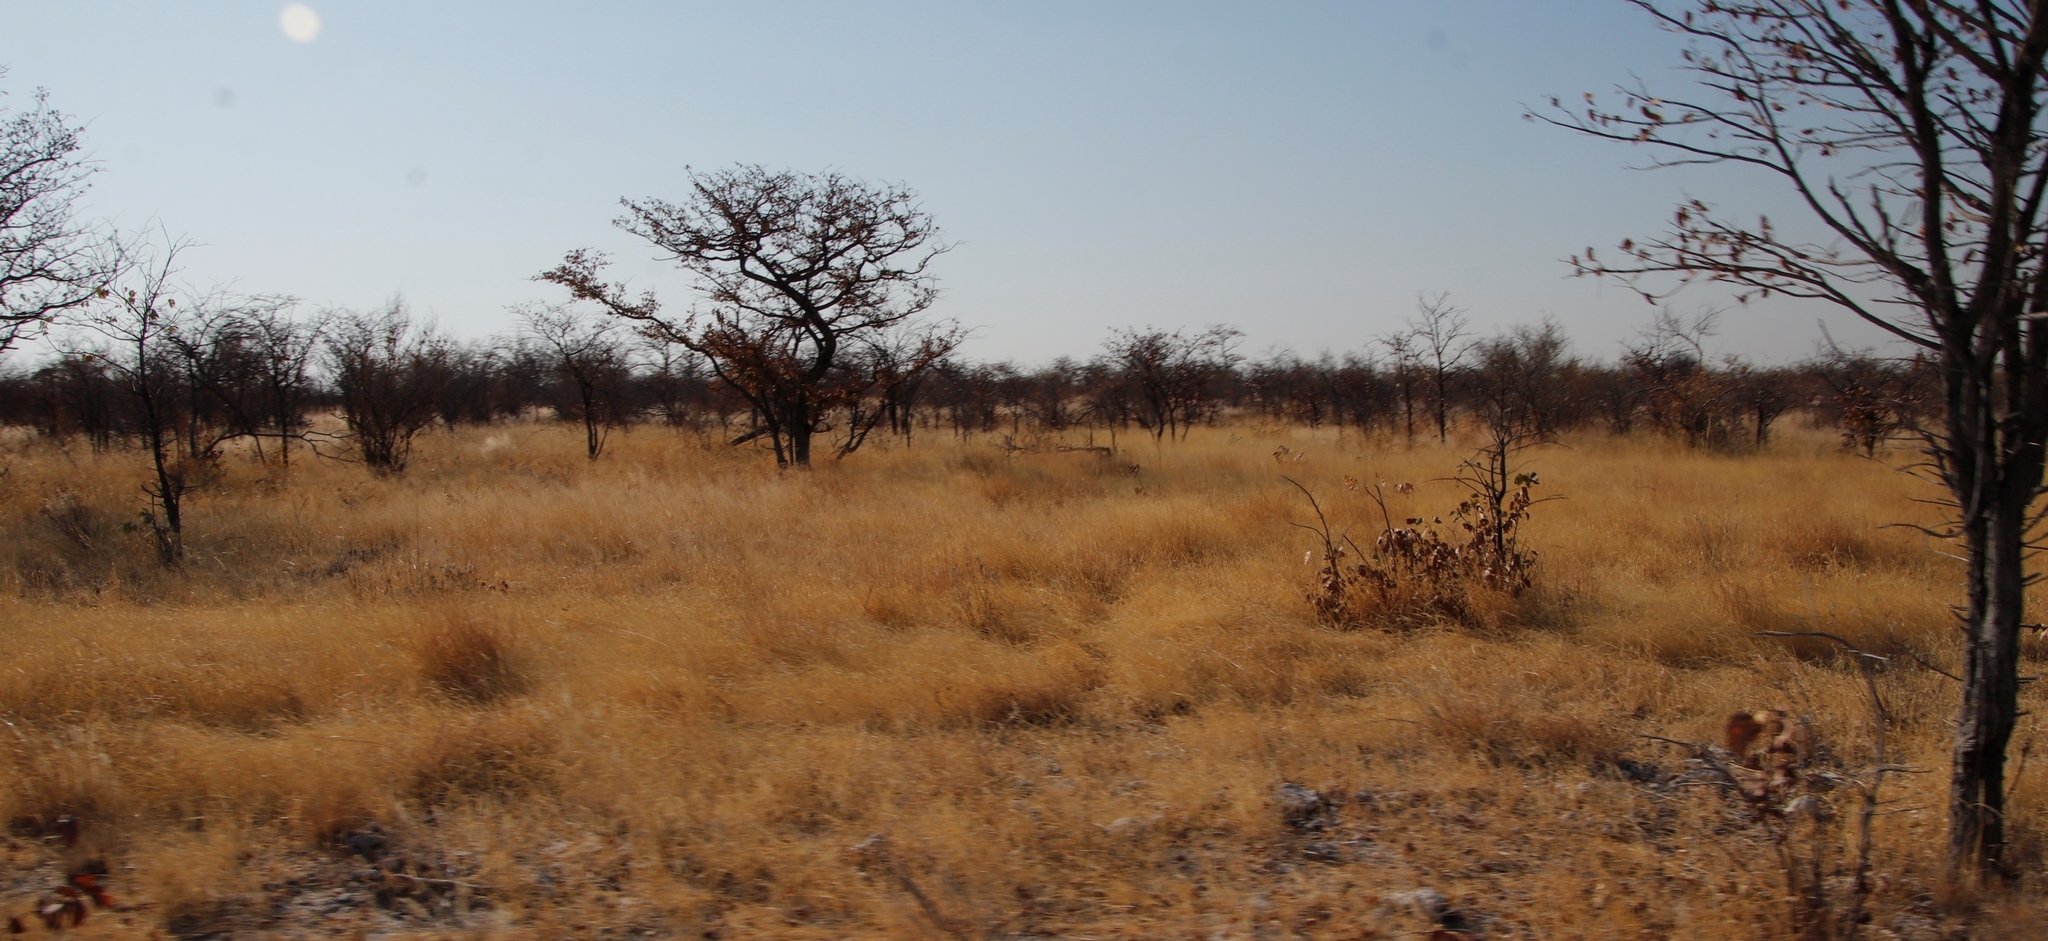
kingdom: Plantae
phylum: Tracheophyta
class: Magnoliopsida
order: Fabales
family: Fabaceae
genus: Colophospermum
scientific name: Colophospermum mopane
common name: Mopane
